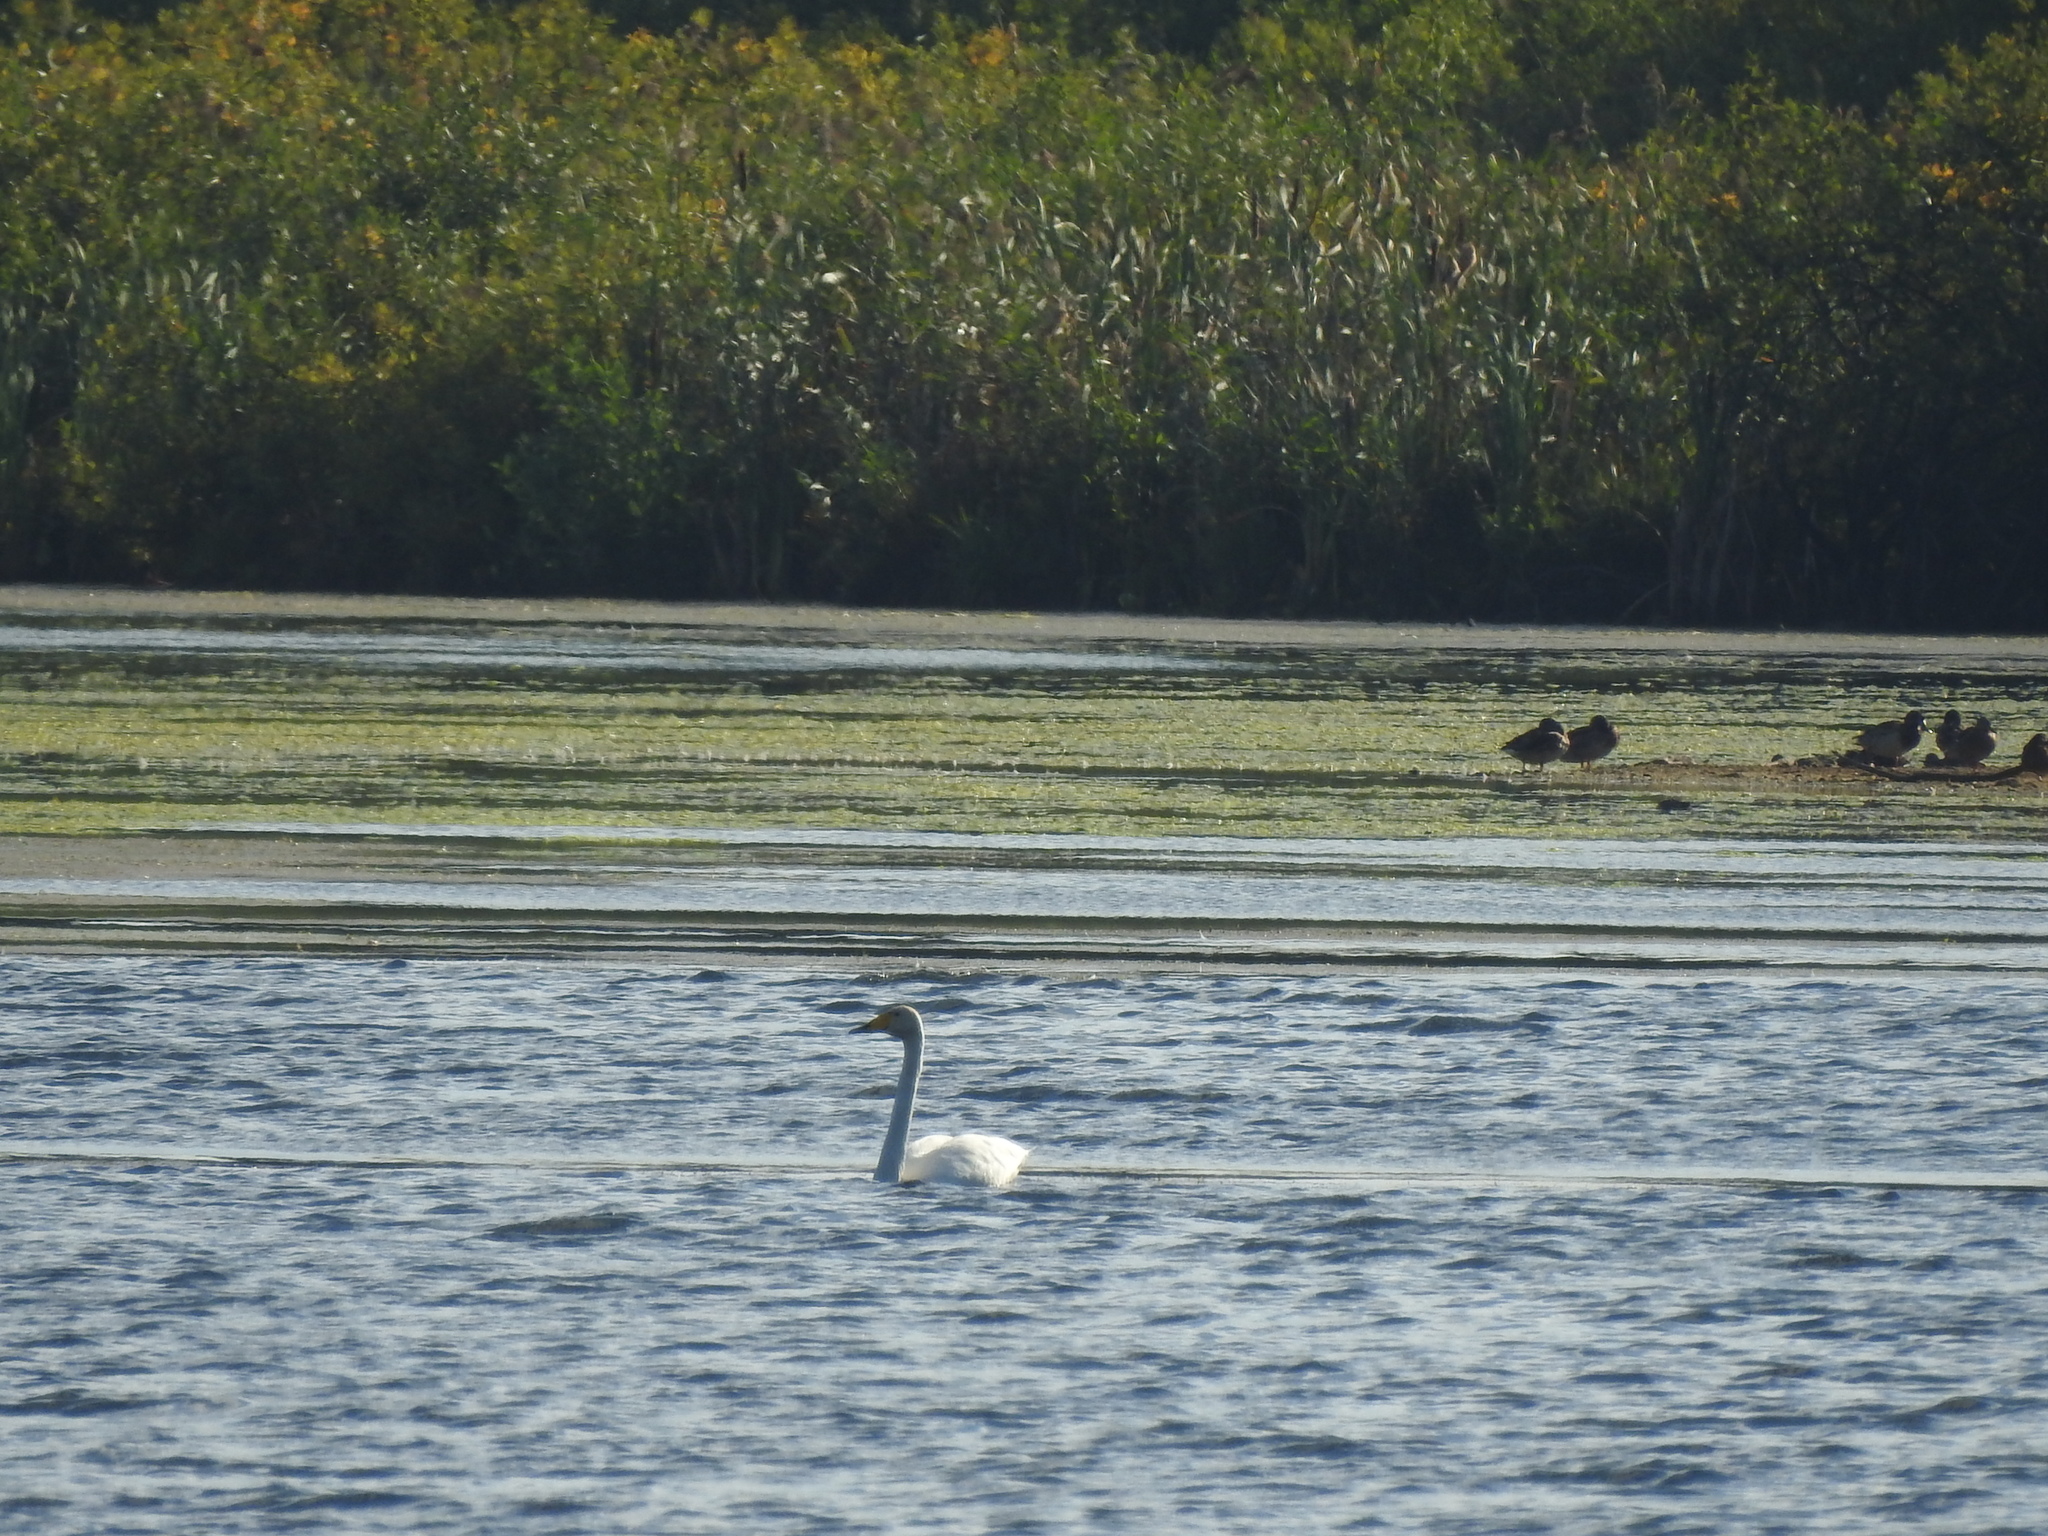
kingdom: Animalia
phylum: Chordata
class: Aves
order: Anseriformes
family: Anatidae
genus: Cygnus
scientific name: Cygnus cygnus
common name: Whooper swan
